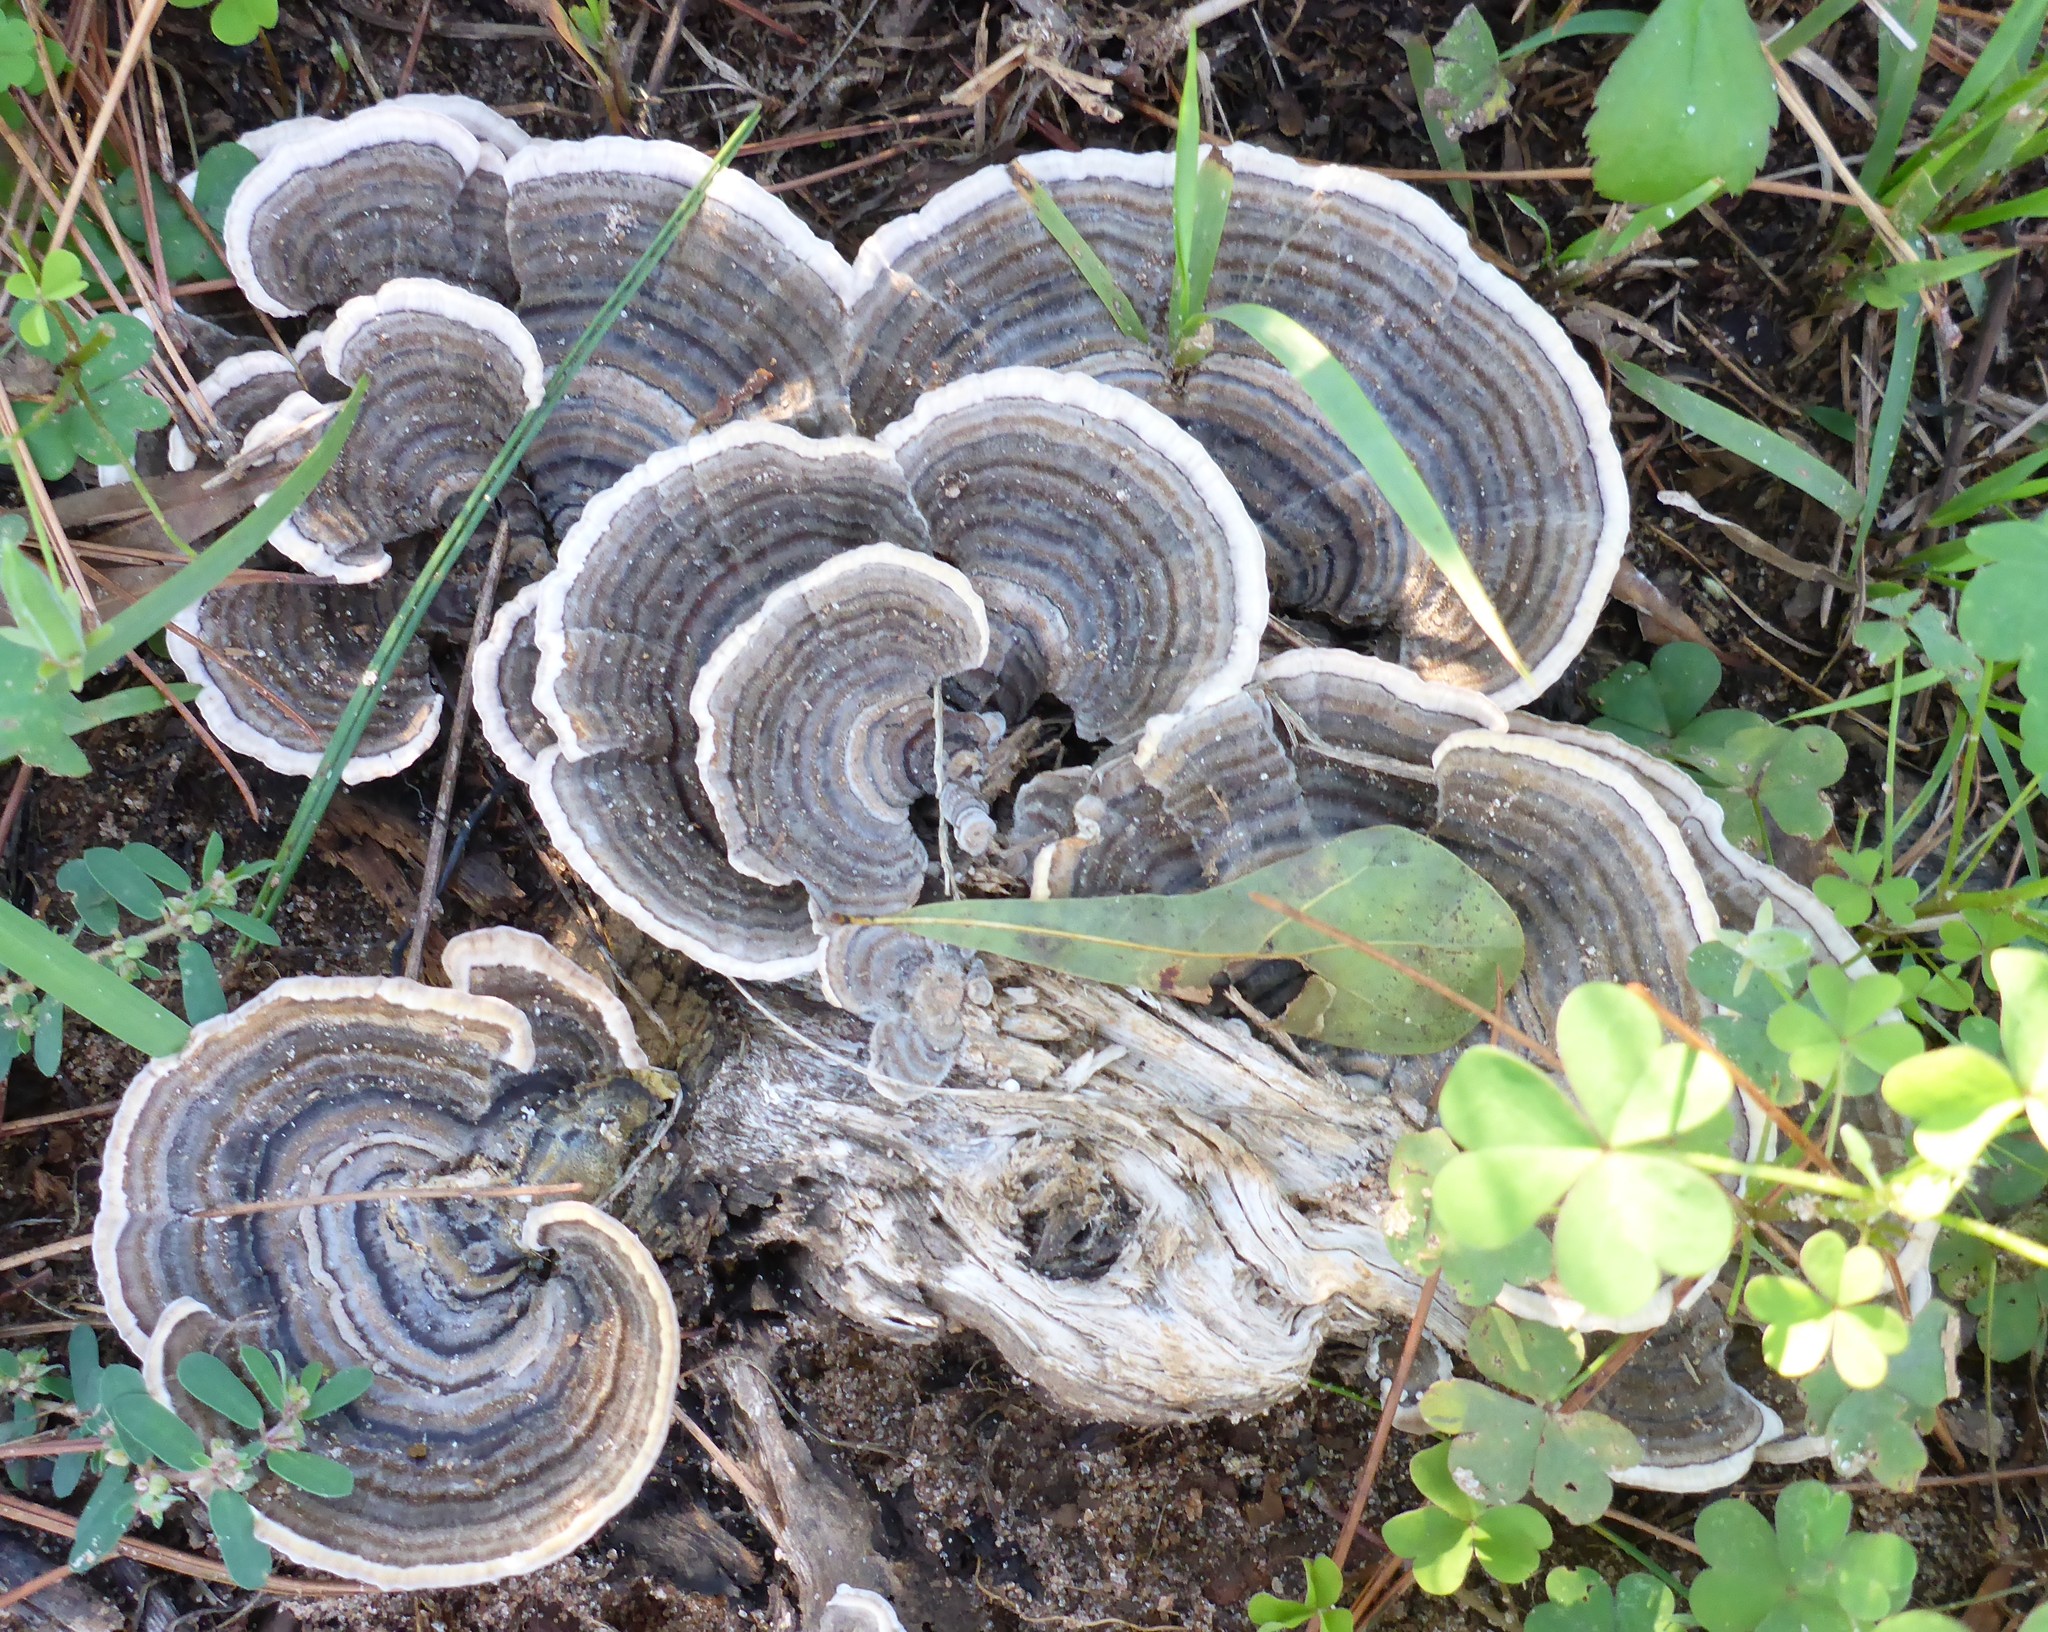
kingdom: Fungi
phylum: Basidiomycota
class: Agaricomycetes
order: Polyporales
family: Polyporaceae
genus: Trametes
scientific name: Trametes versicolor
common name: Turkeytail
